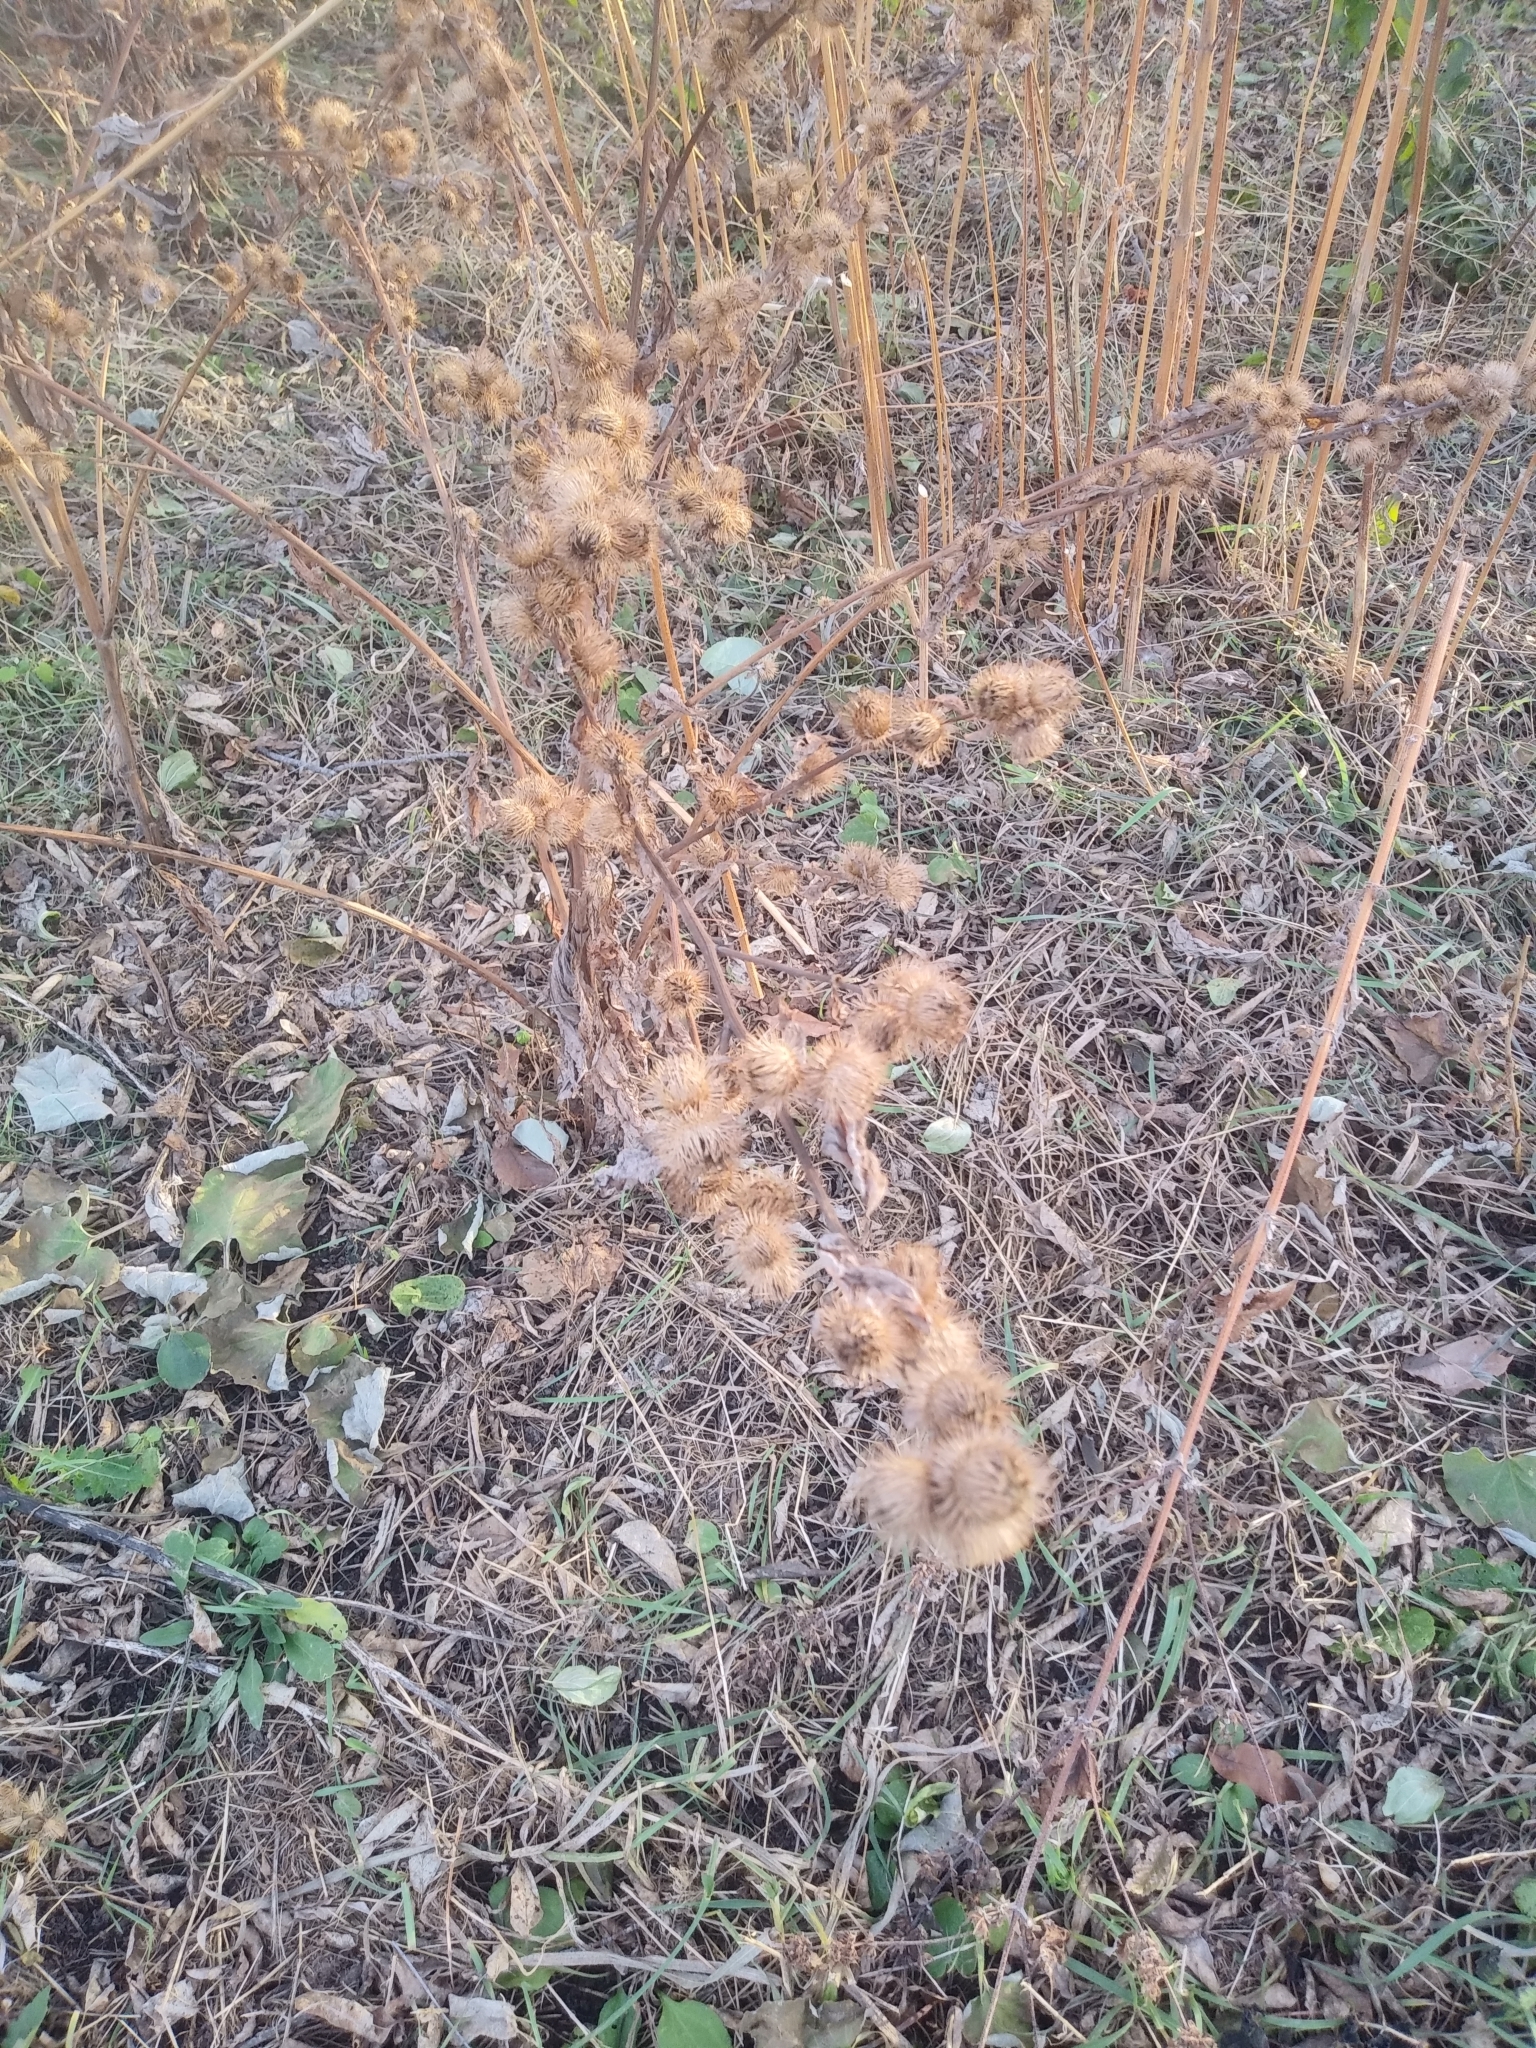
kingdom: Plantae
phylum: Tracheophyta
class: Magnoliopsida
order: Asterales
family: Asteraceae
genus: Arctium
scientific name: Arctium lappa
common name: Greater burdock
